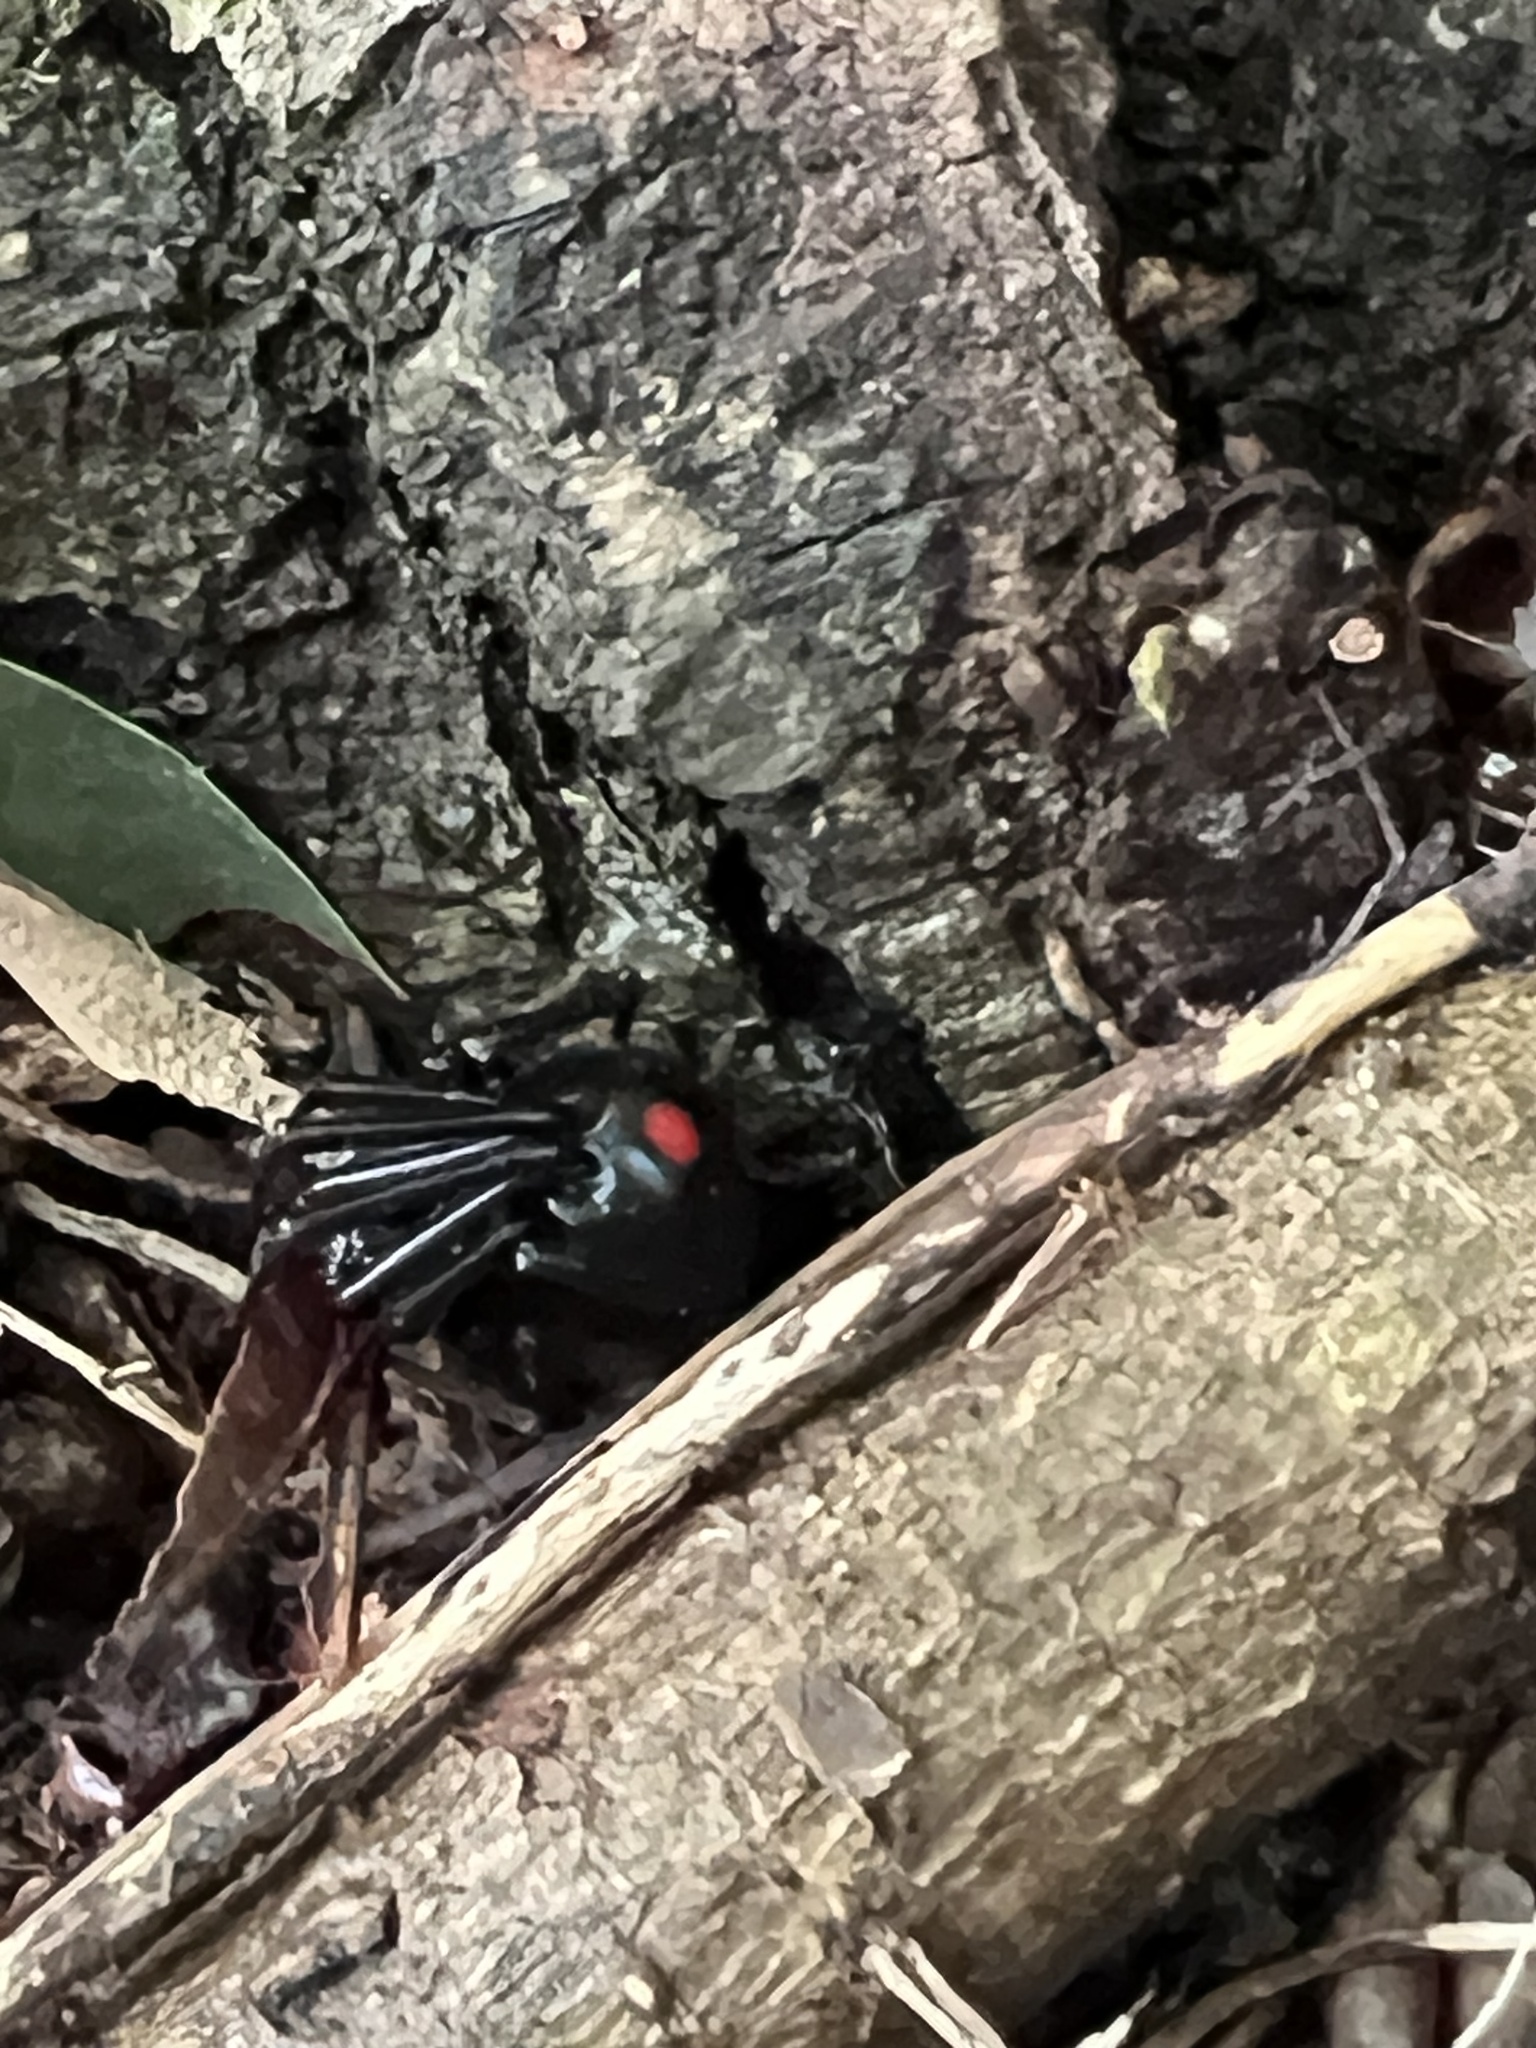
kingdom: Animalia
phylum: Arthropoda
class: Arachnida
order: Araneae
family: Theridiidae
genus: Latrodectus
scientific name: Latrodectus variolus
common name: Northern black widow
